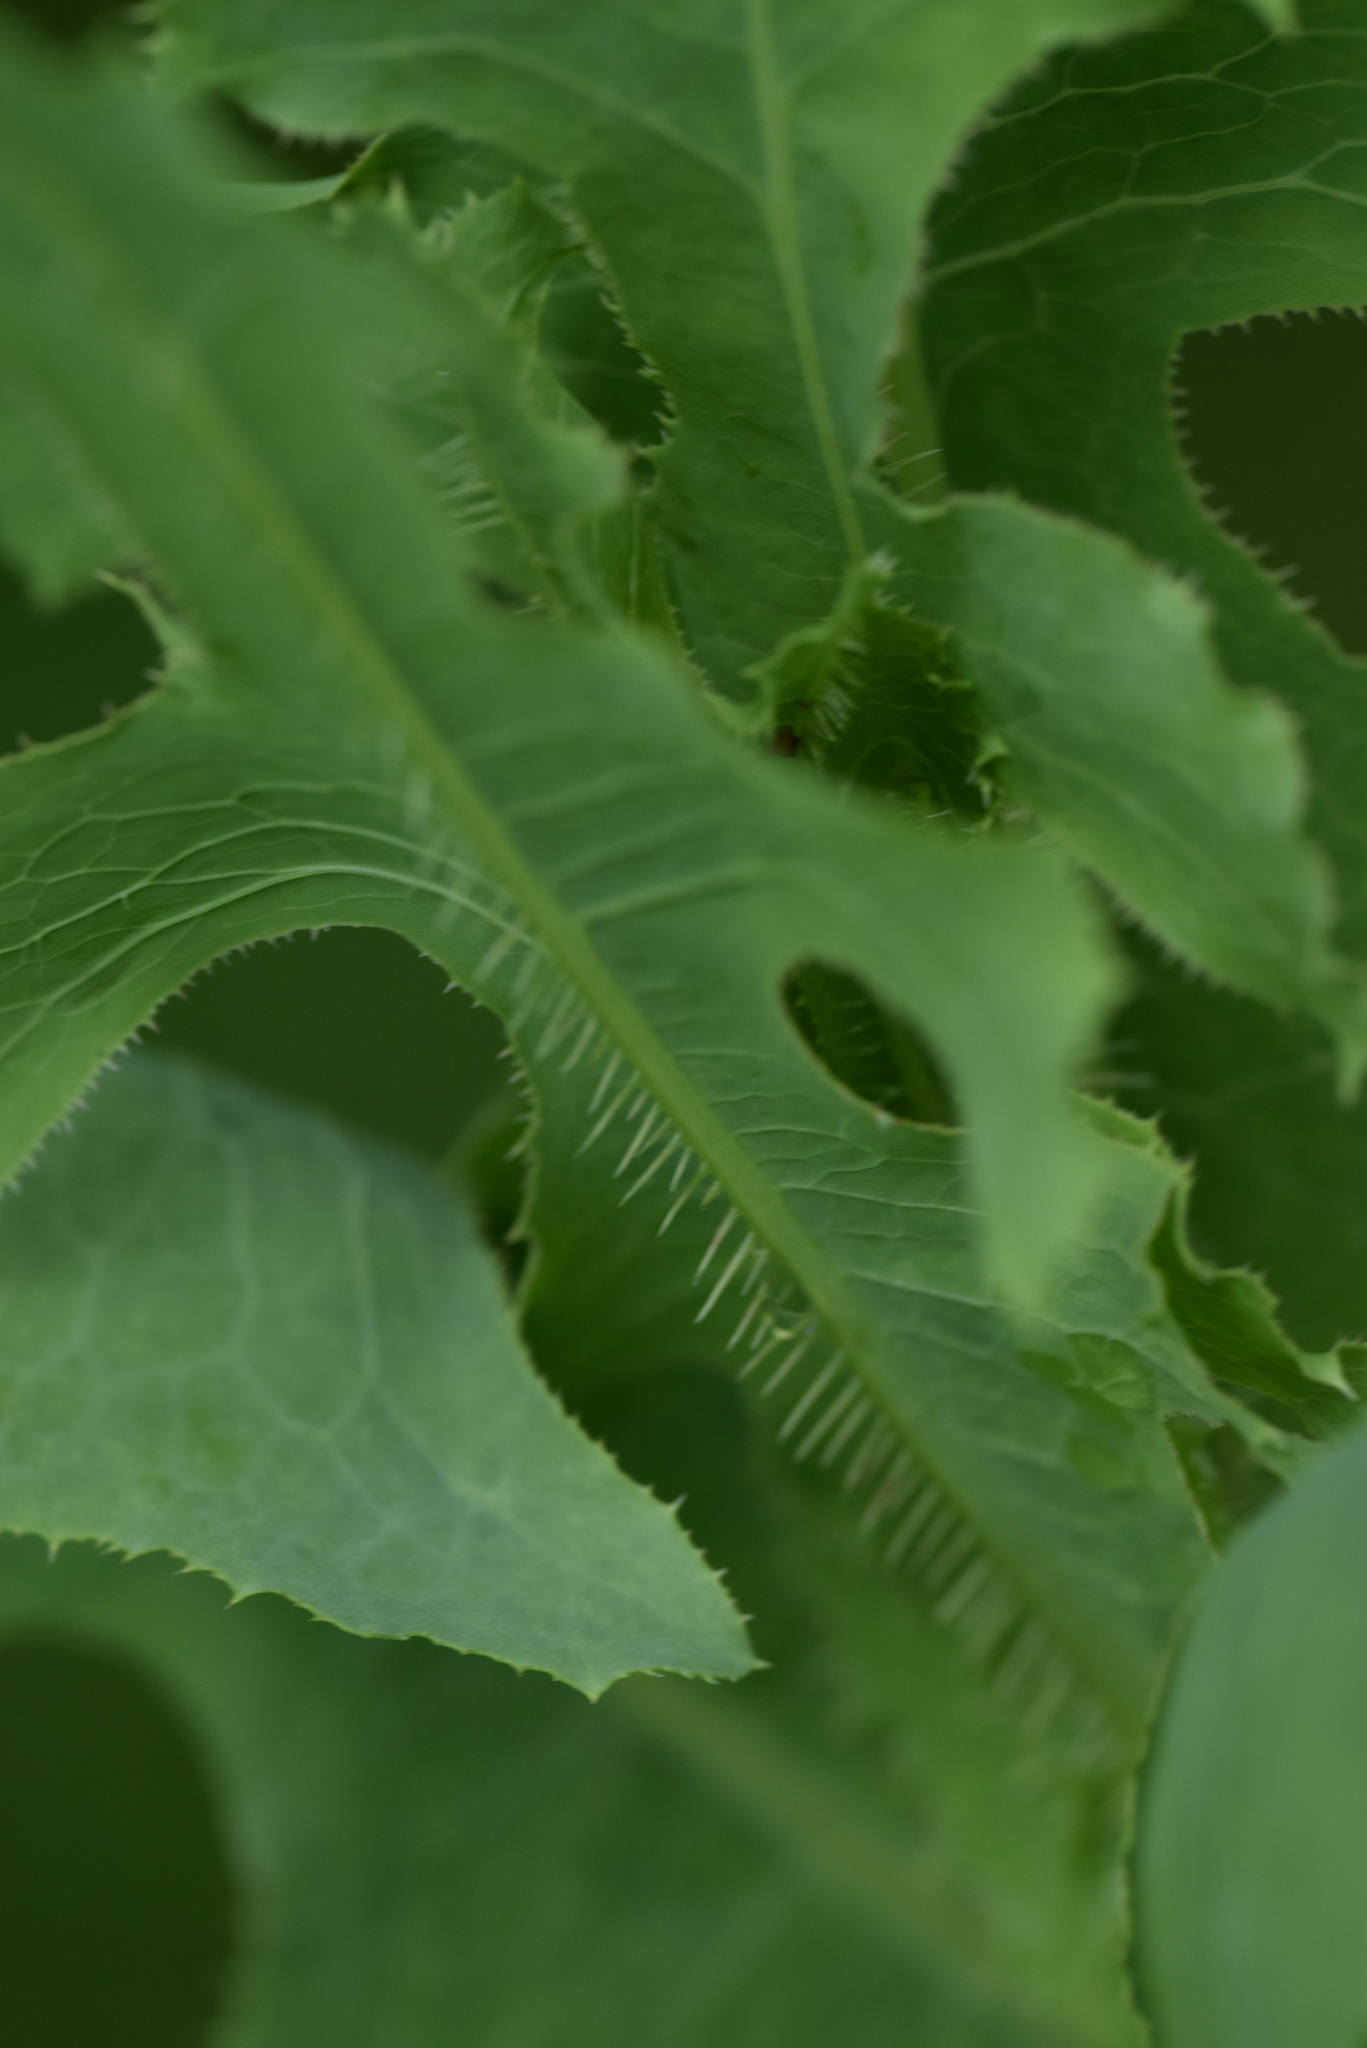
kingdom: Plantae
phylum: Tracheophyta
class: Magnoliopsida
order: Asterales
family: Asteraceae
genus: Lactuca
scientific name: Lactuca serriola
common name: Prickly lettuce
